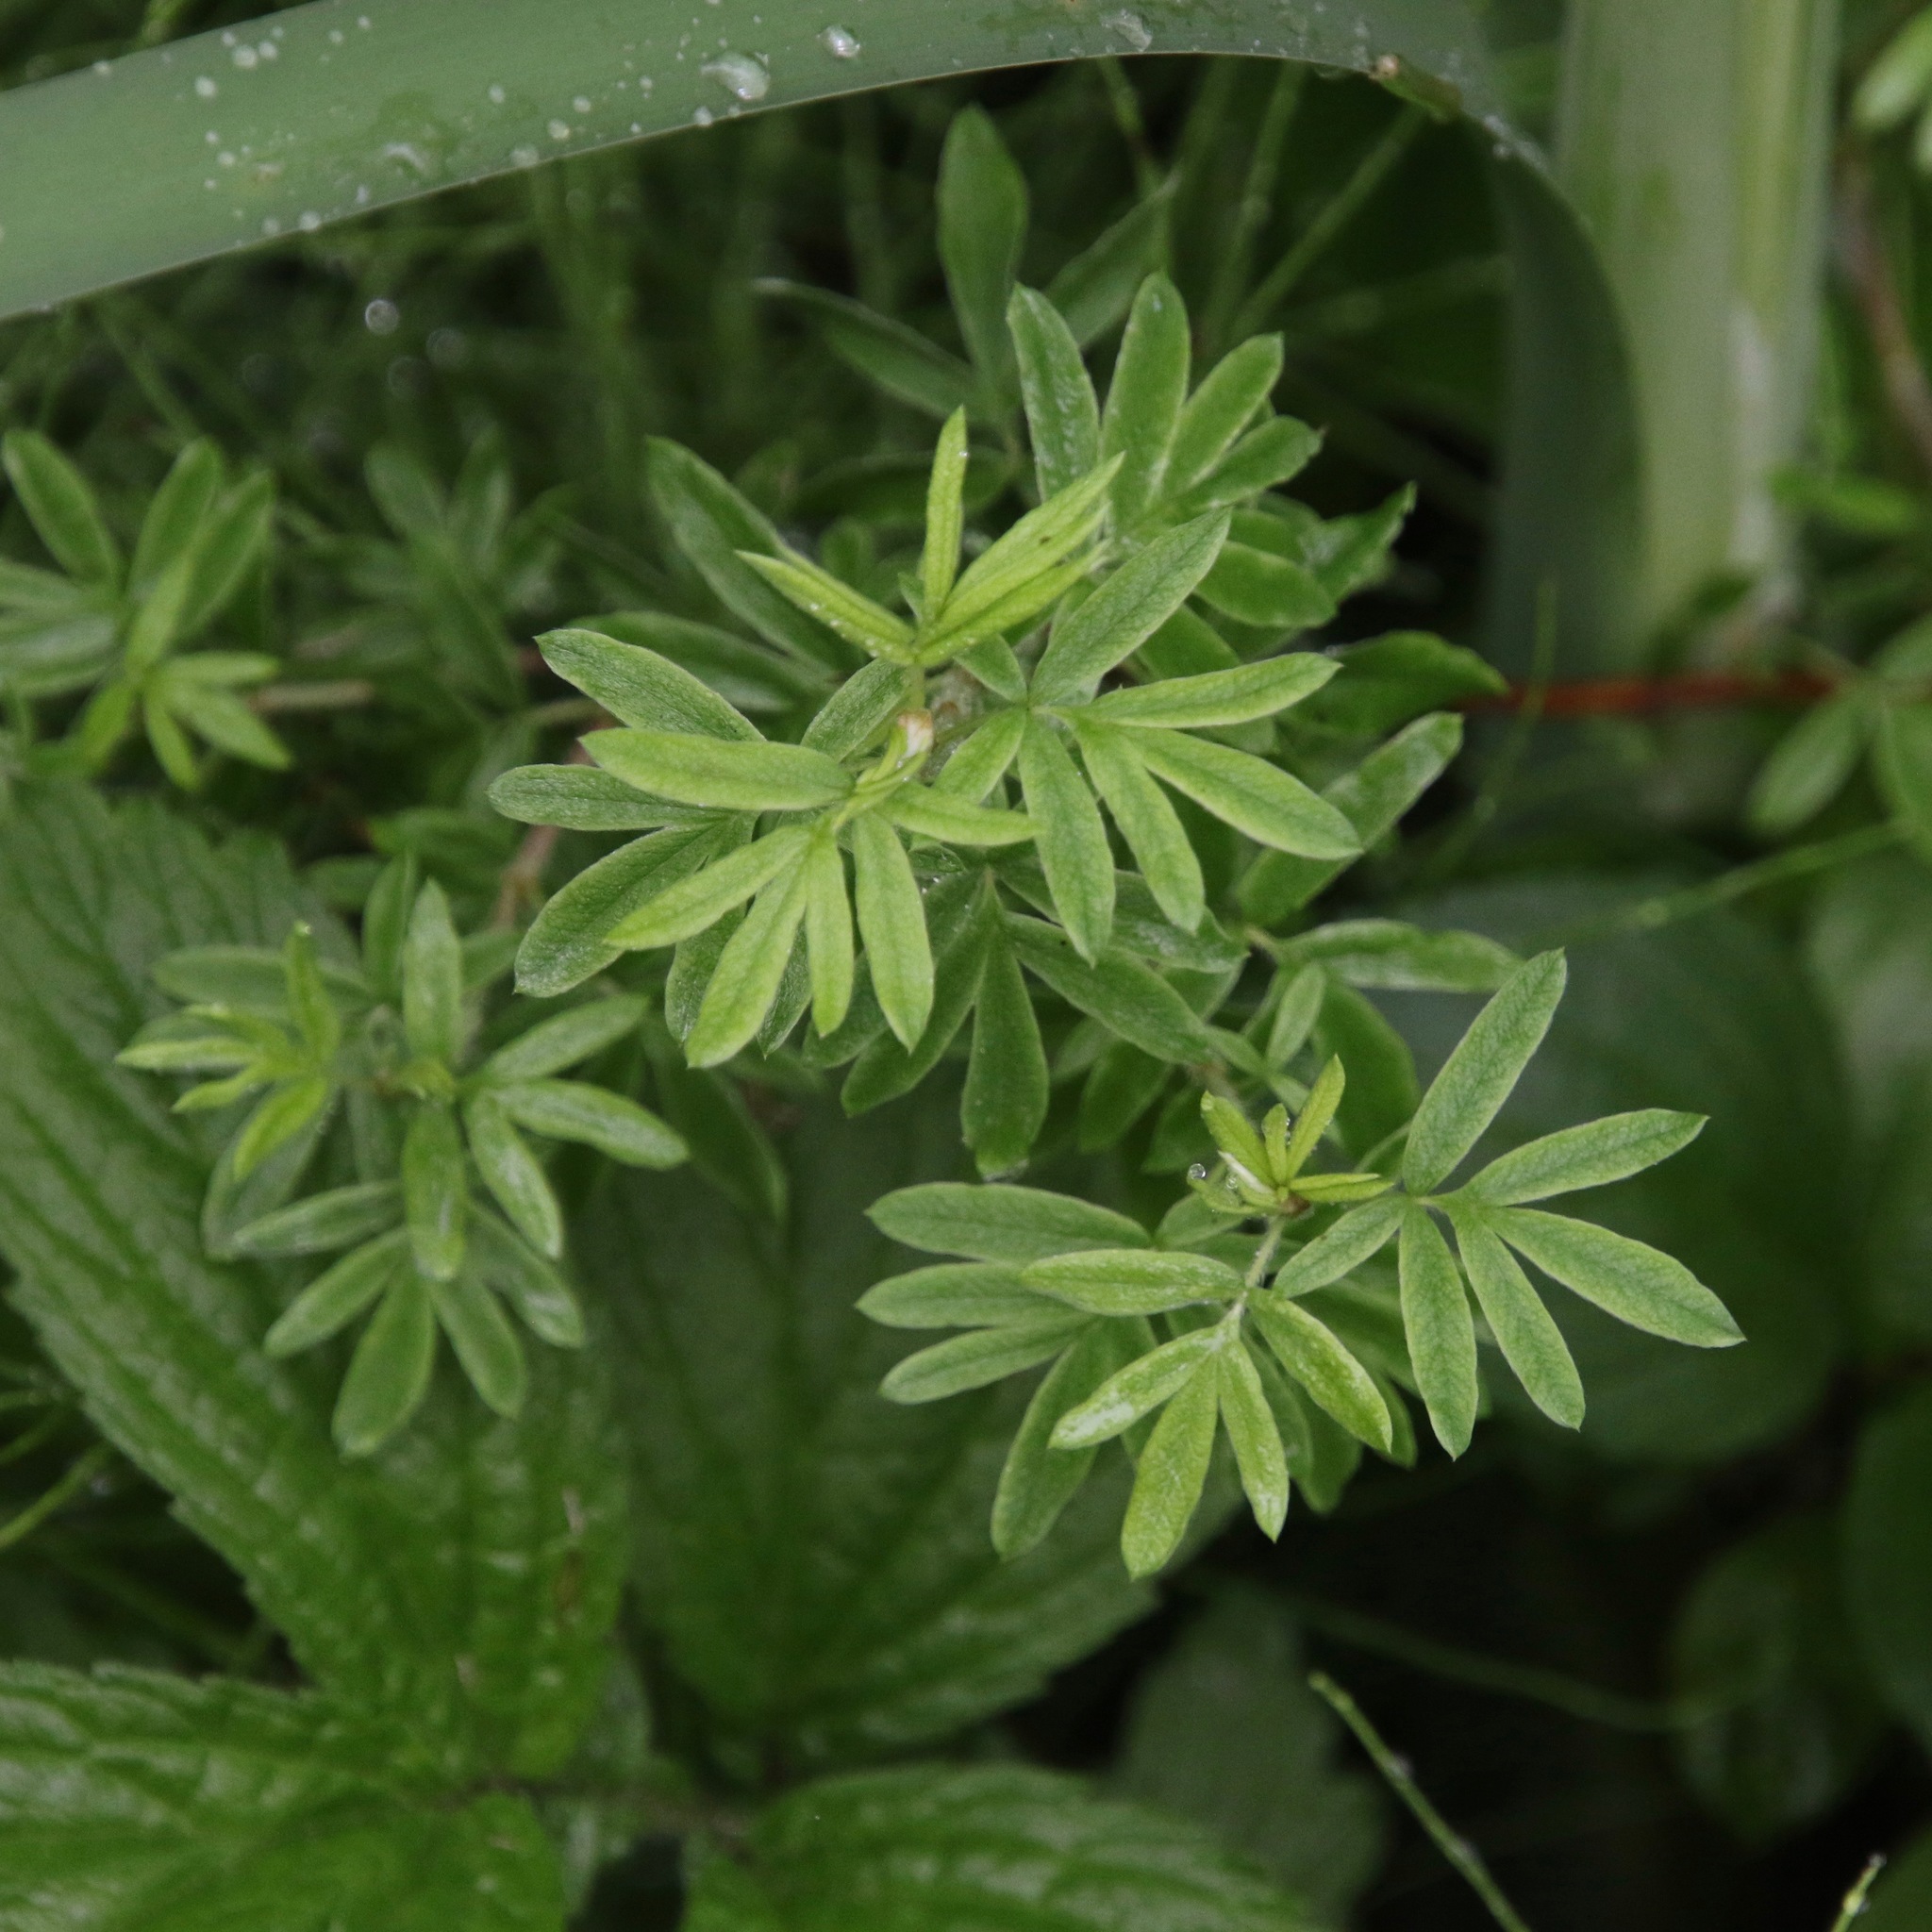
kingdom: Plantae
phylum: Tracheophyta
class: Magnoliopsida
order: Rosales
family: Rosaceae
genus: Dasiphora
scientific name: Dasiphora fruticosa
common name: Shrubby cinquefoil
